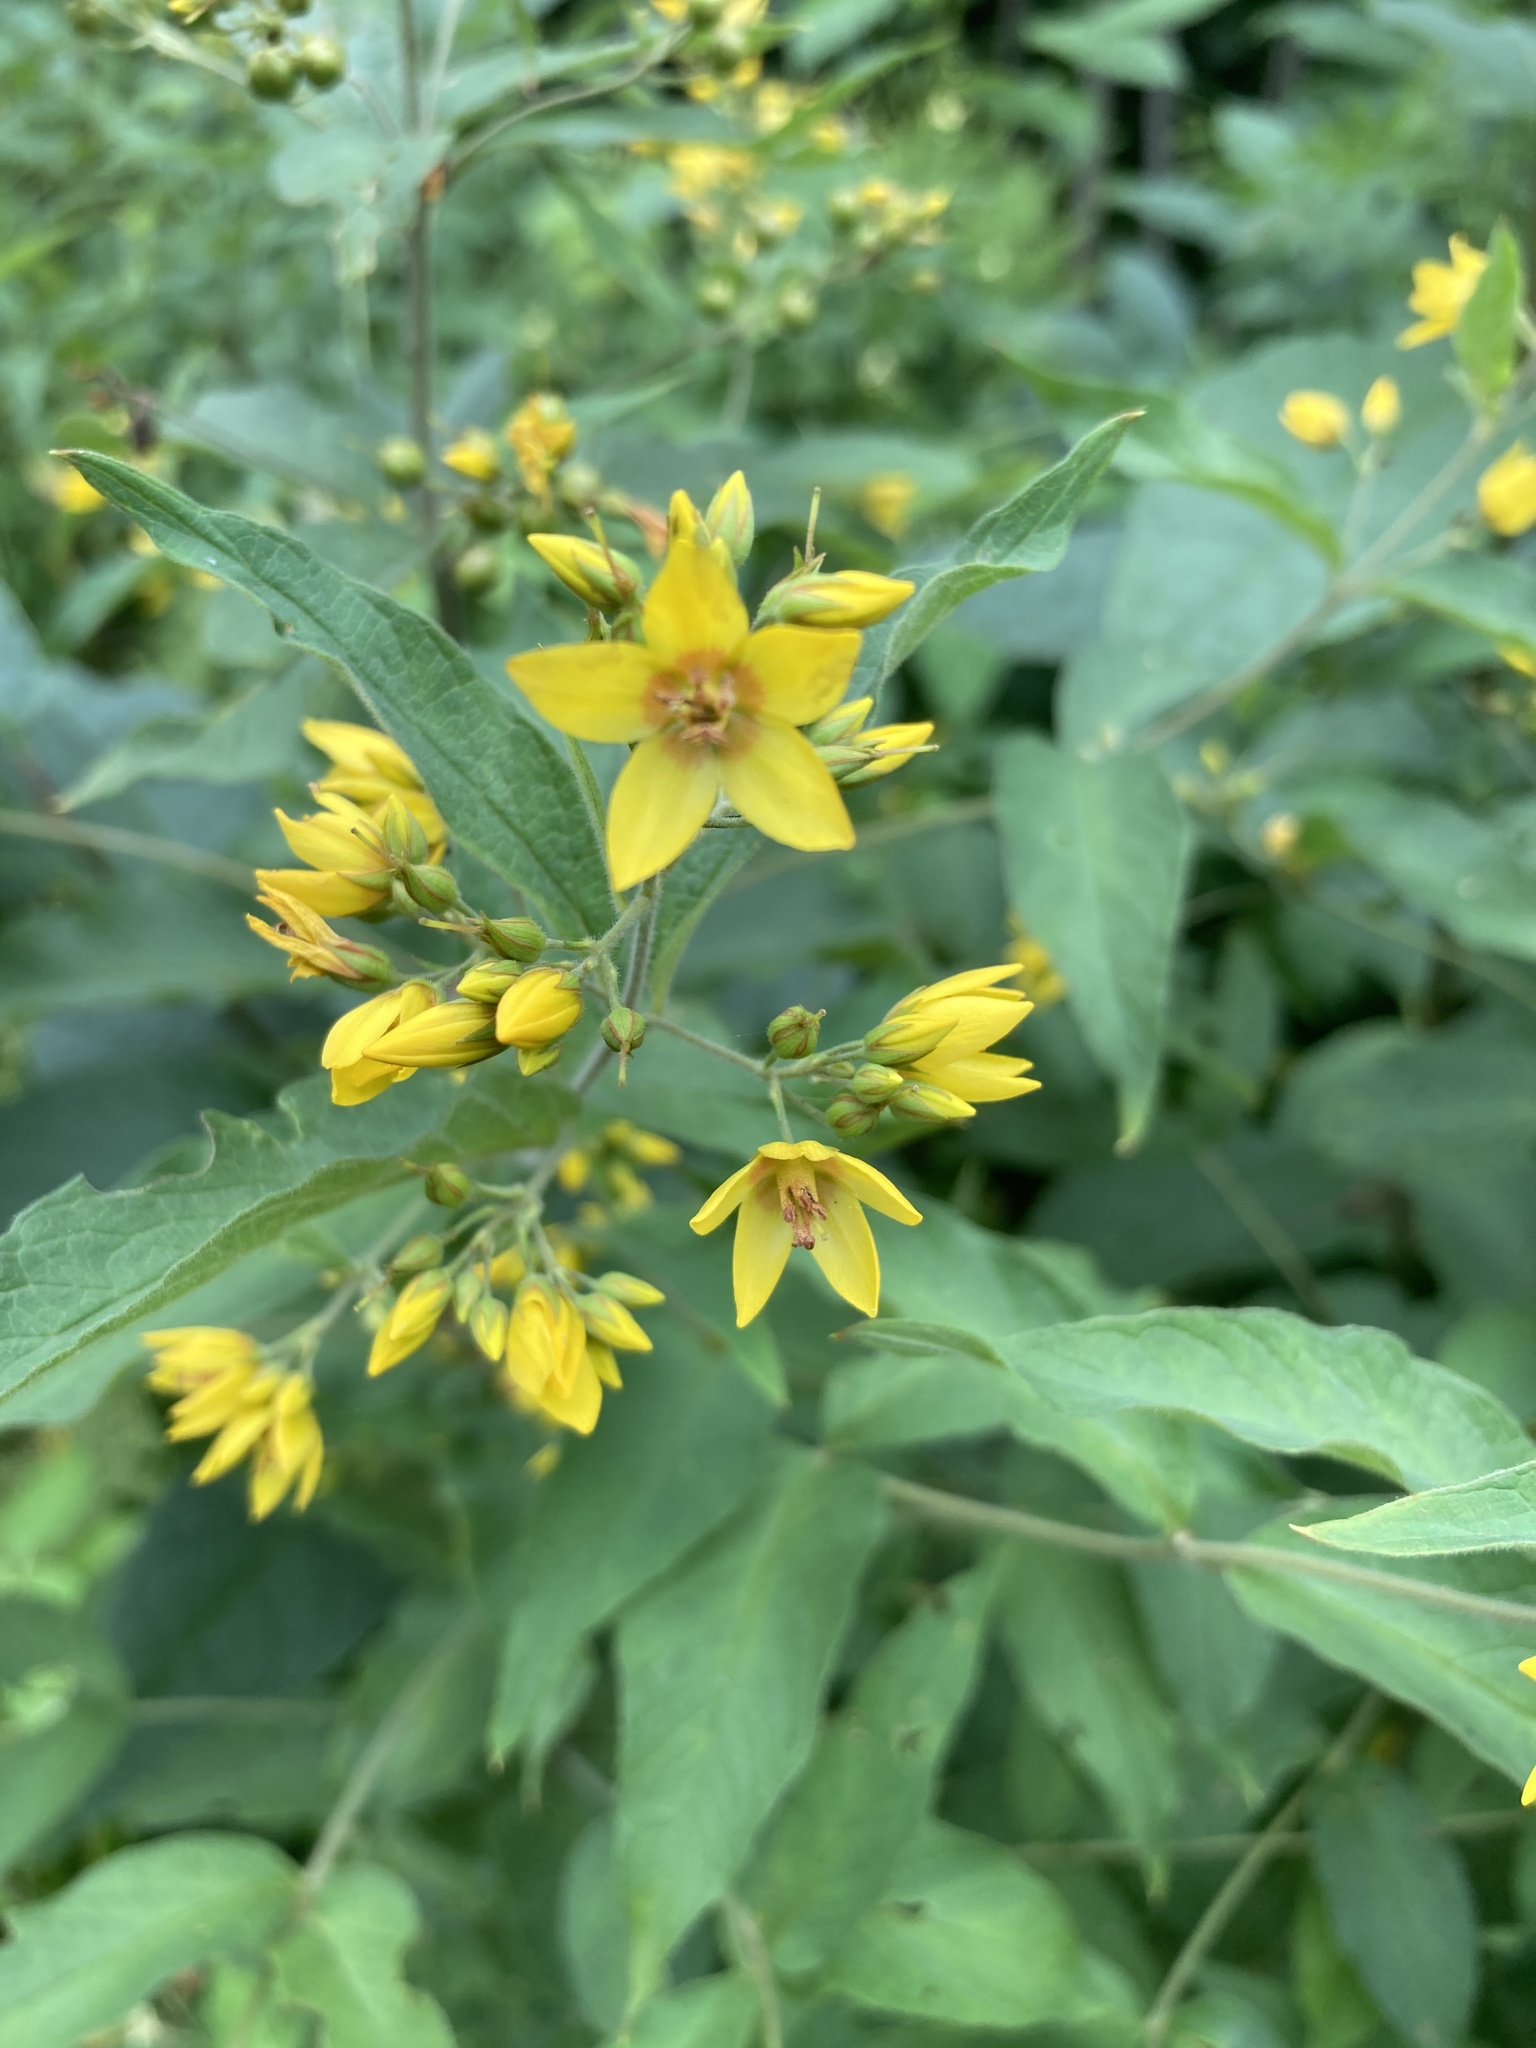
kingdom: Plantae
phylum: Tracheophyta
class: Magnoliopsida
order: Ericales
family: Primulaceae
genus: Lysimachia
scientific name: Lysimachia vulgaris
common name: Yellow loosestrife
